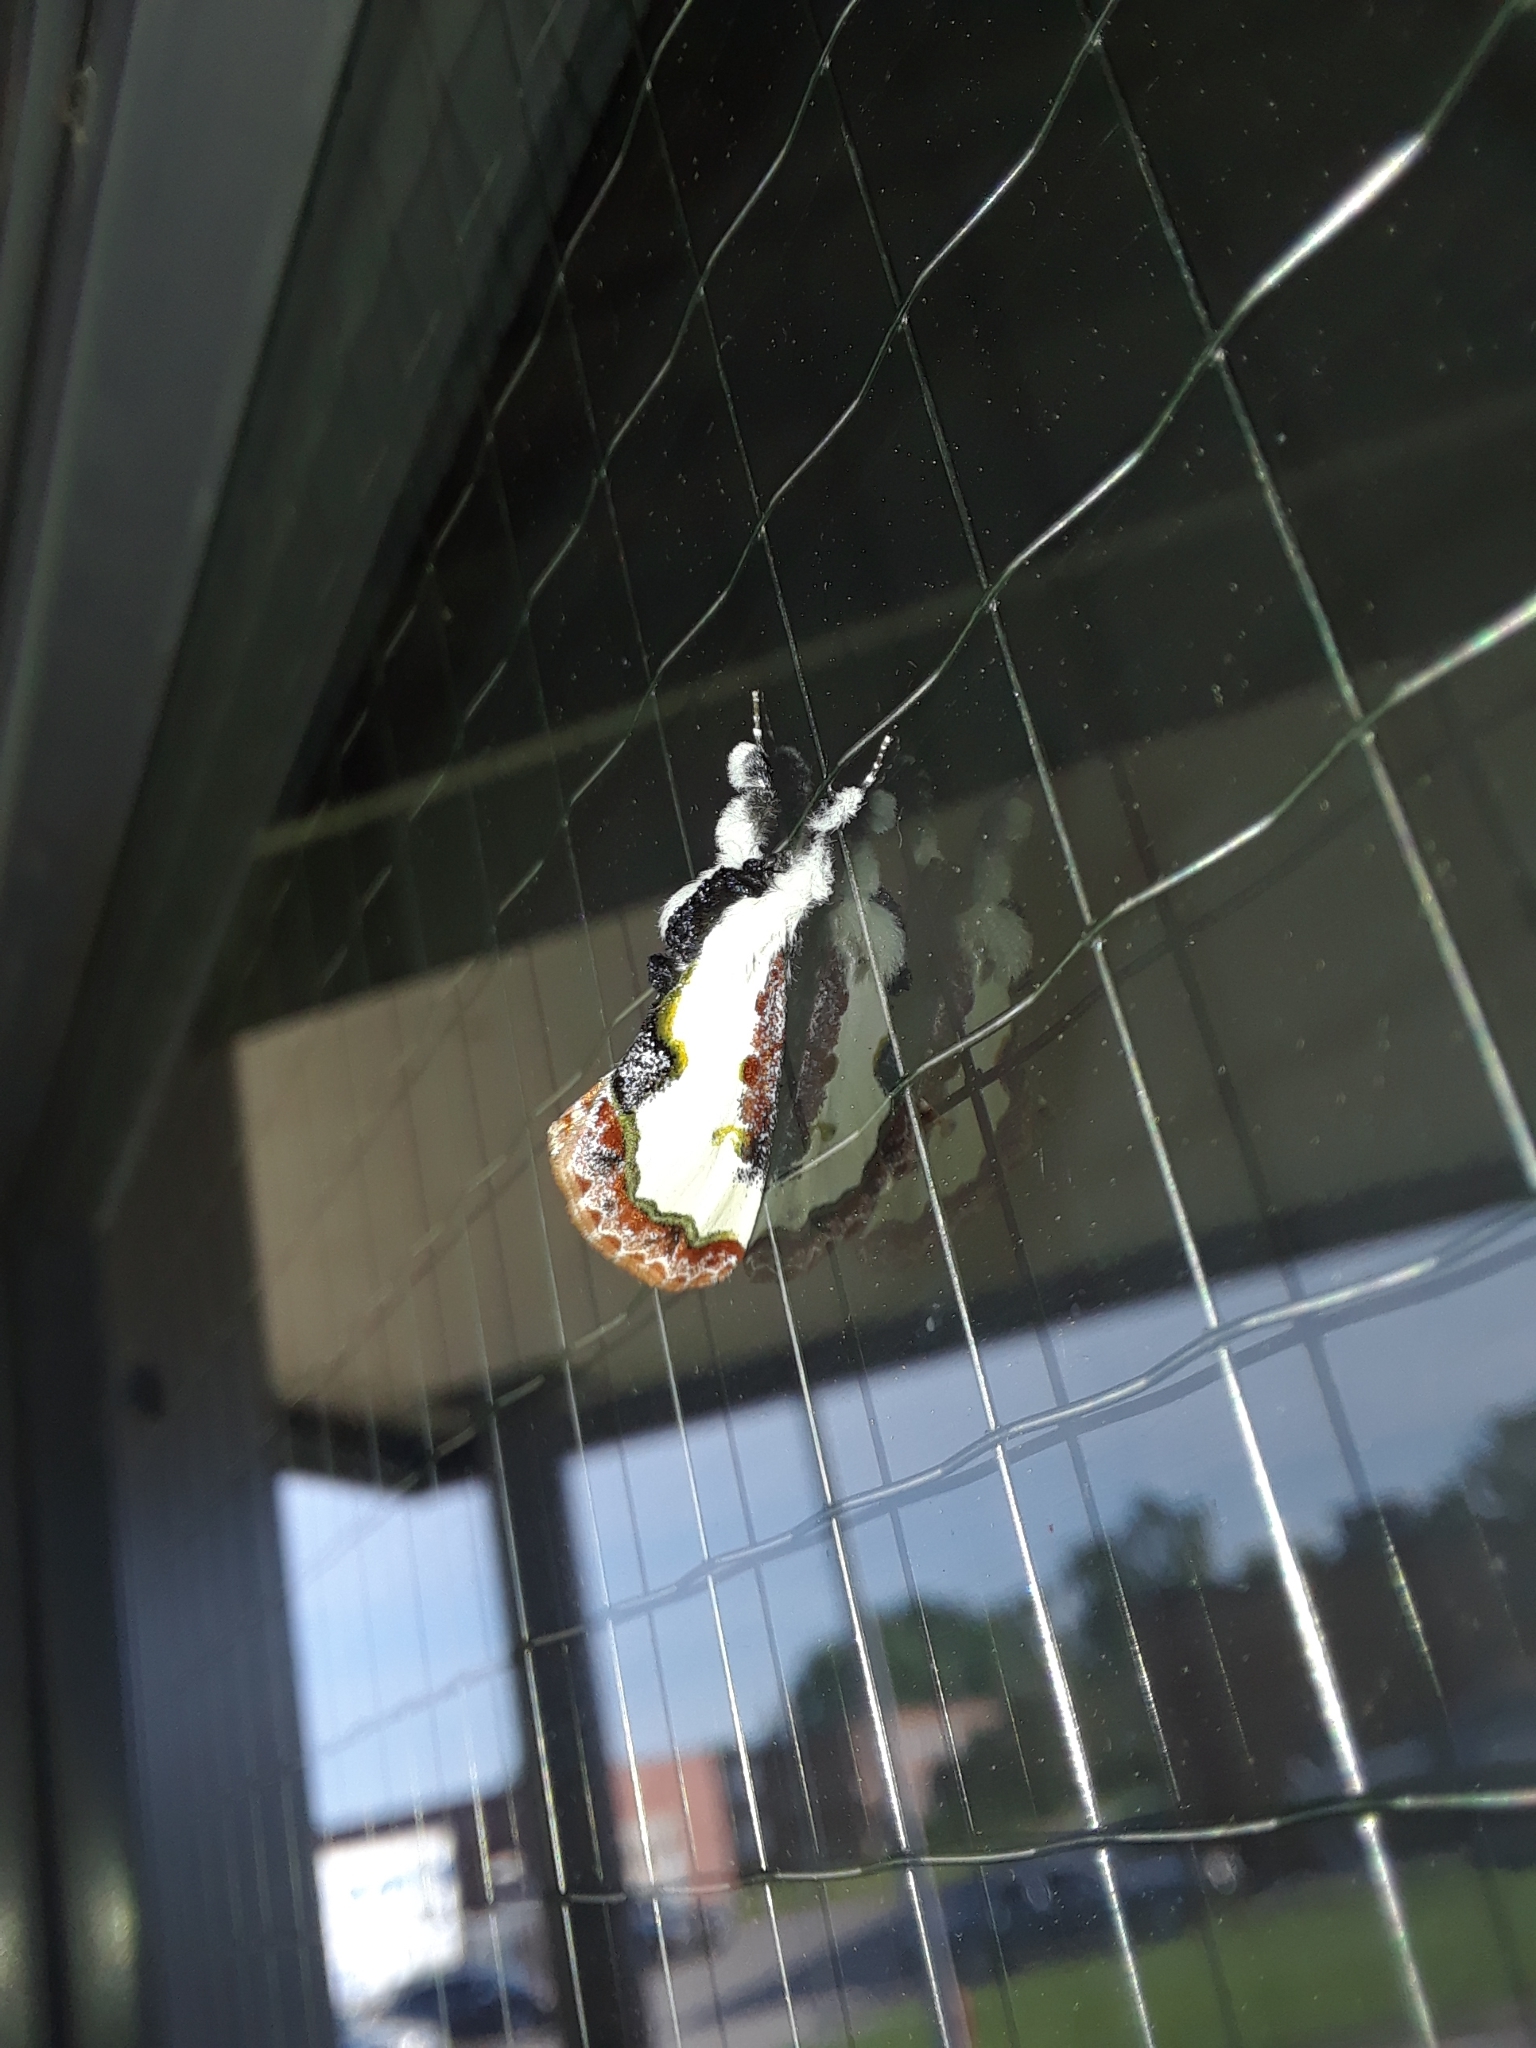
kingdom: Animalia
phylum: Arthropoda
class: Insecta
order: Lepidoptera
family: Noctuidae
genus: Eudryas
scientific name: Eudryas unio
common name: Pearly wood-nymph
